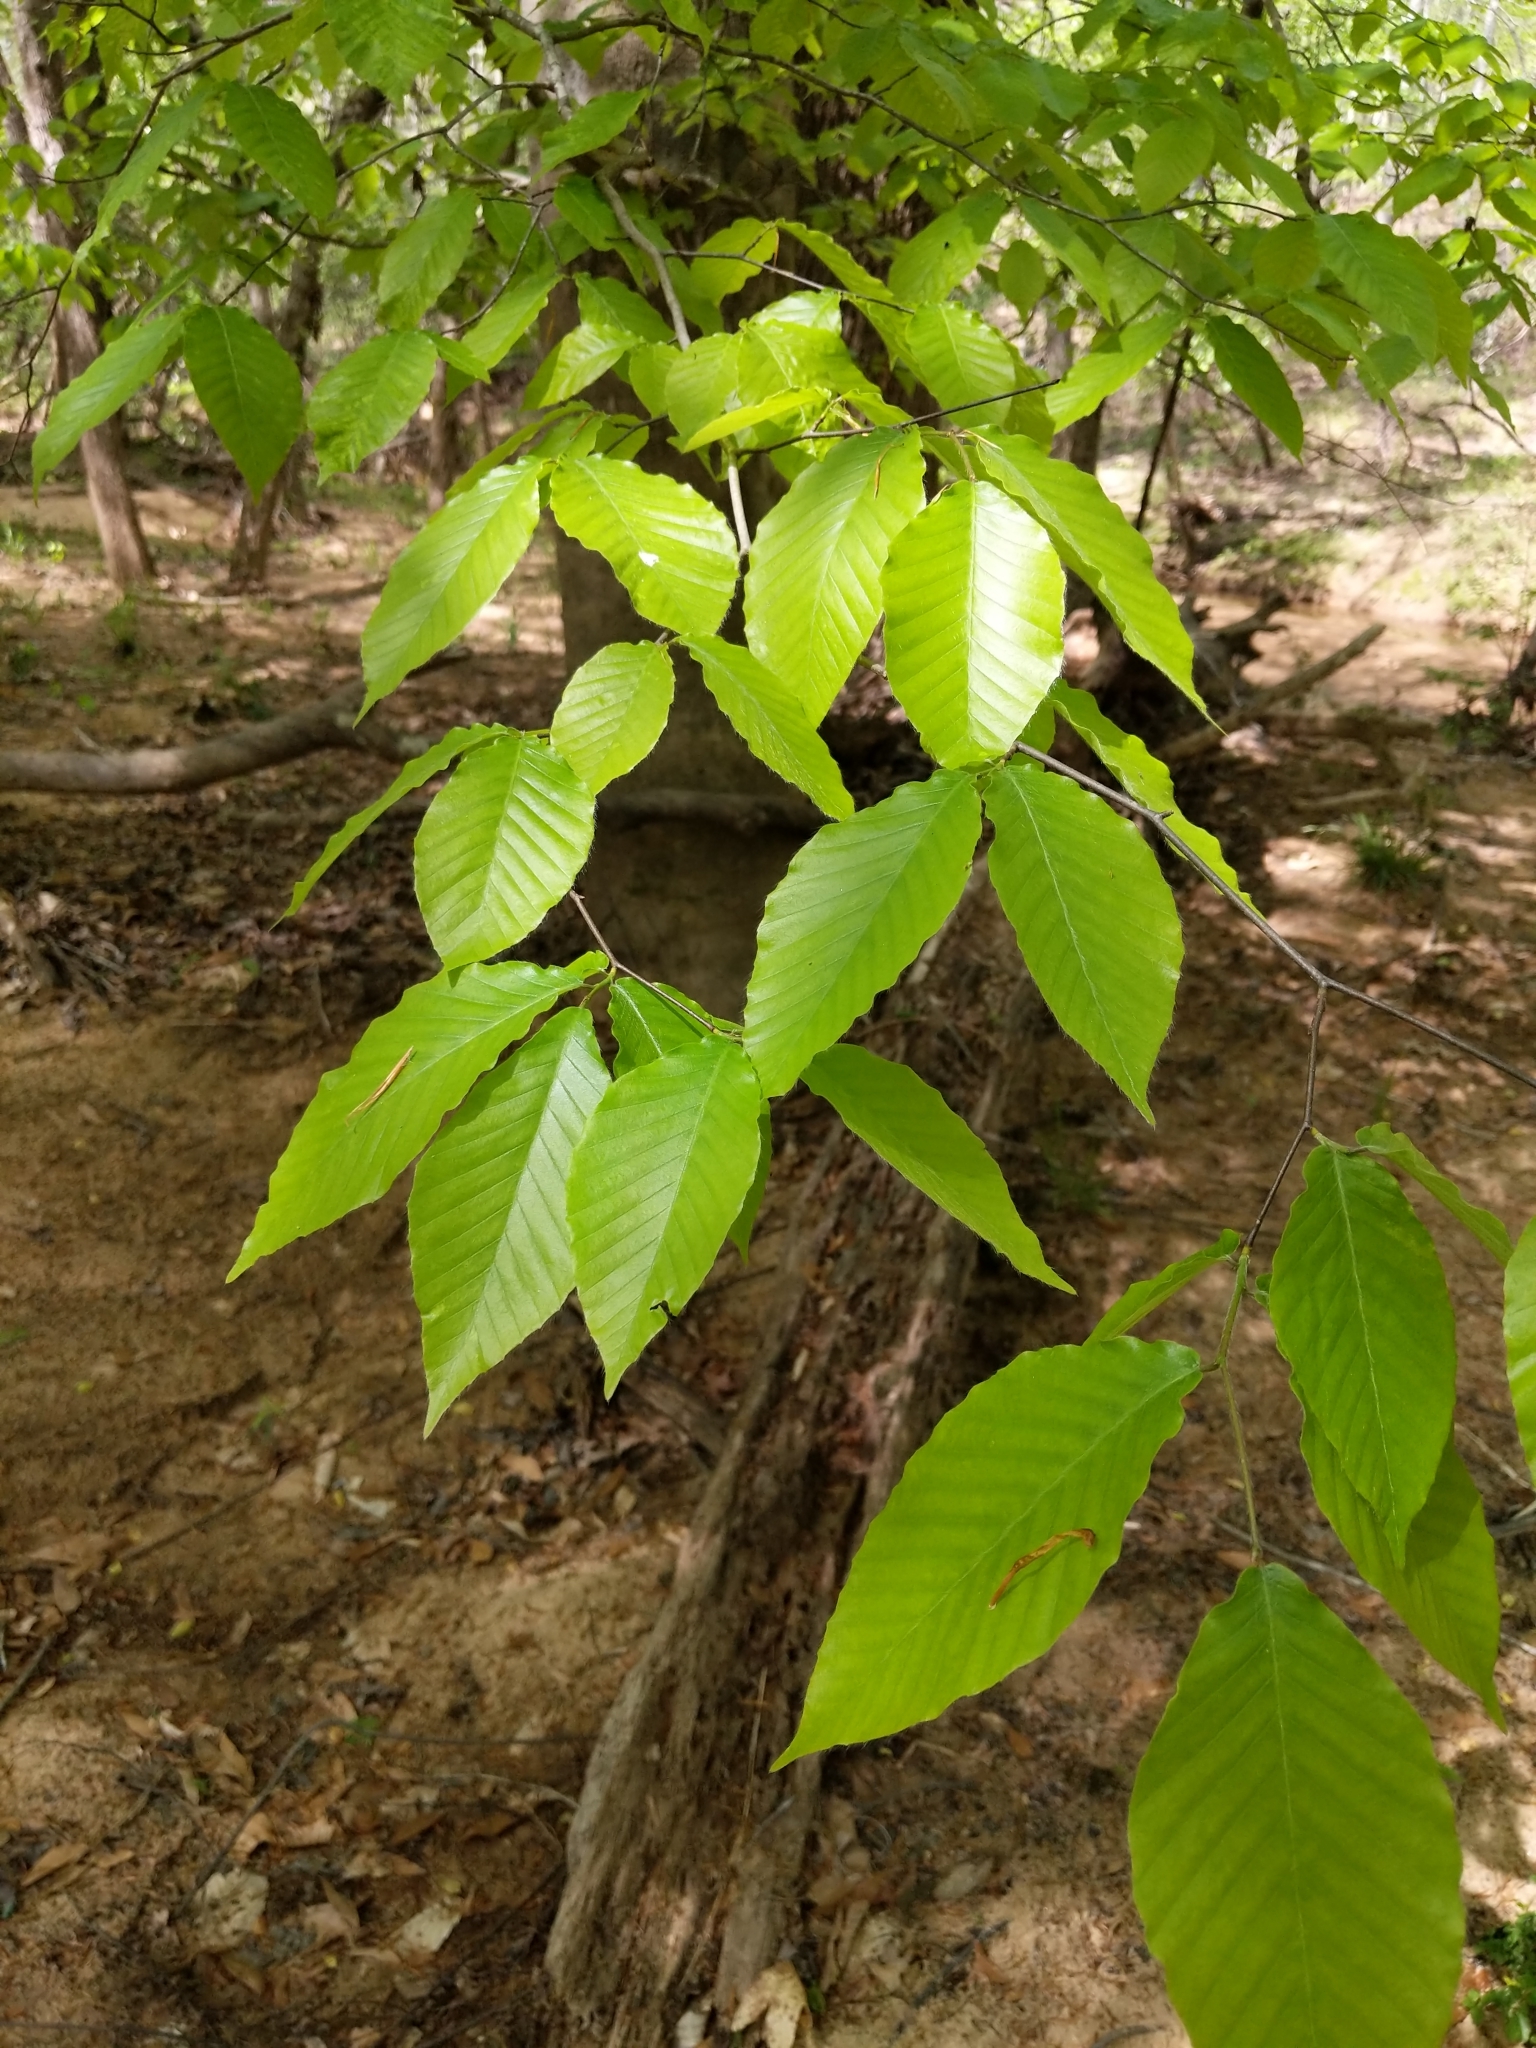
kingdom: Plantae
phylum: Tracheophyta
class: Magnoliopsida
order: Fagales
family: Fagaceae
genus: Fagus
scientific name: Fagus grandifolia
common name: American beech
